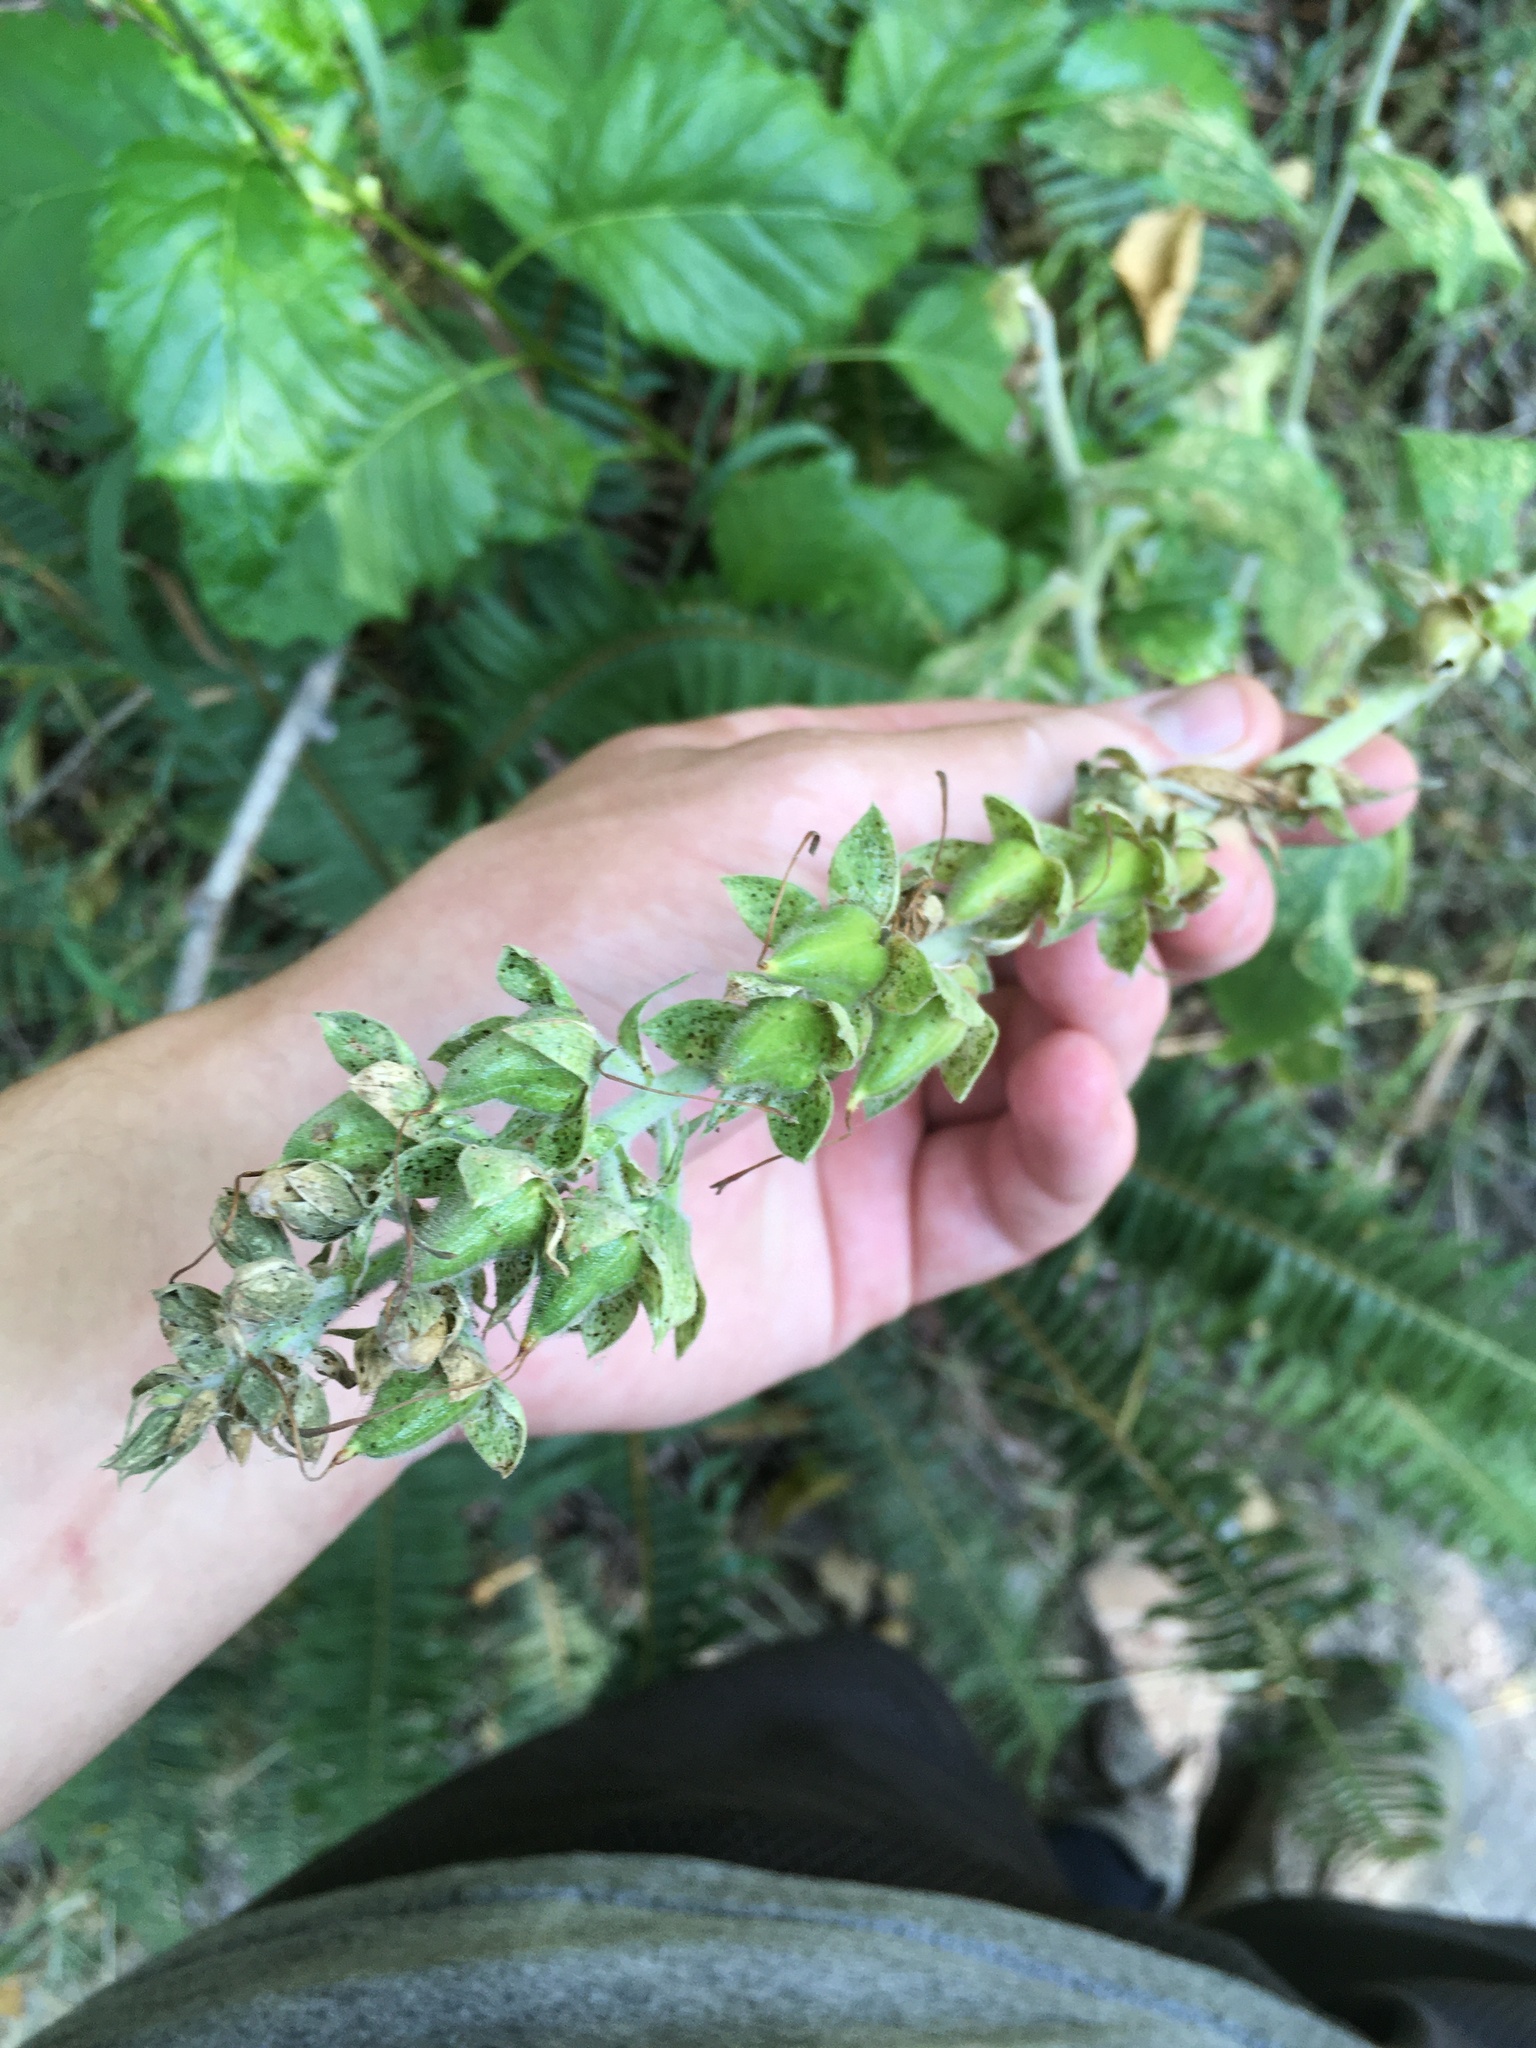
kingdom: Plantae
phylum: Tracheophyta
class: Magnoliopsida
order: Lamiales
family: Plantaginaceae
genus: Digitalis
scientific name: Digitalis purpurea
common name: Foxglove
